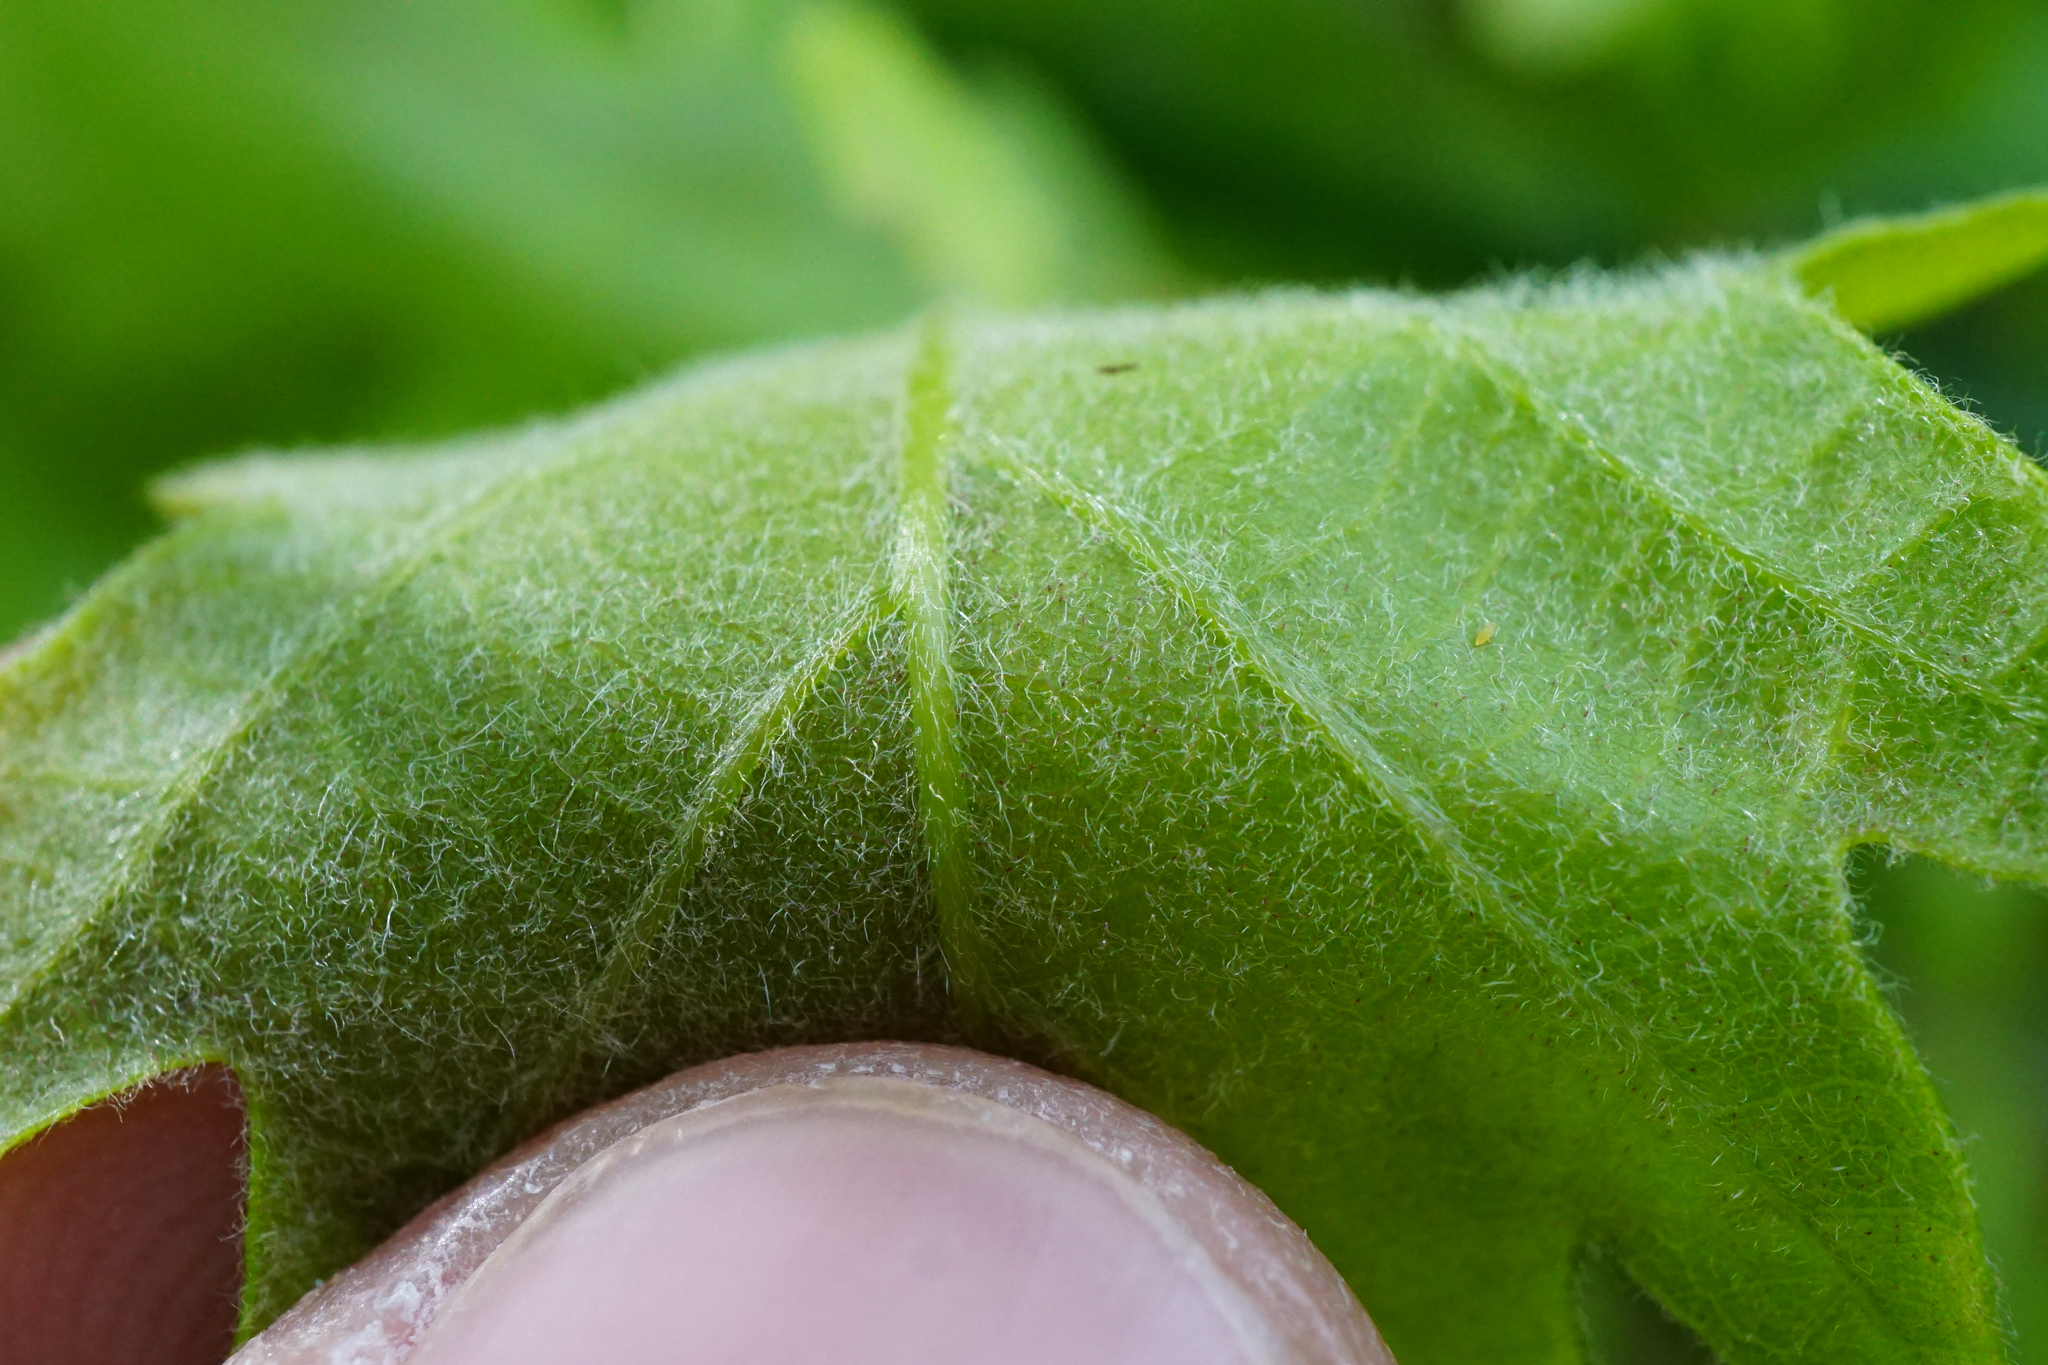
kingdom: Plantae
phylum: Tracheophyta
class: Magnoliopsida
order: Fagales
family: Fagaceae
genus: Quercus
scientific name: Quercus pubescens
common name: Downy oak
